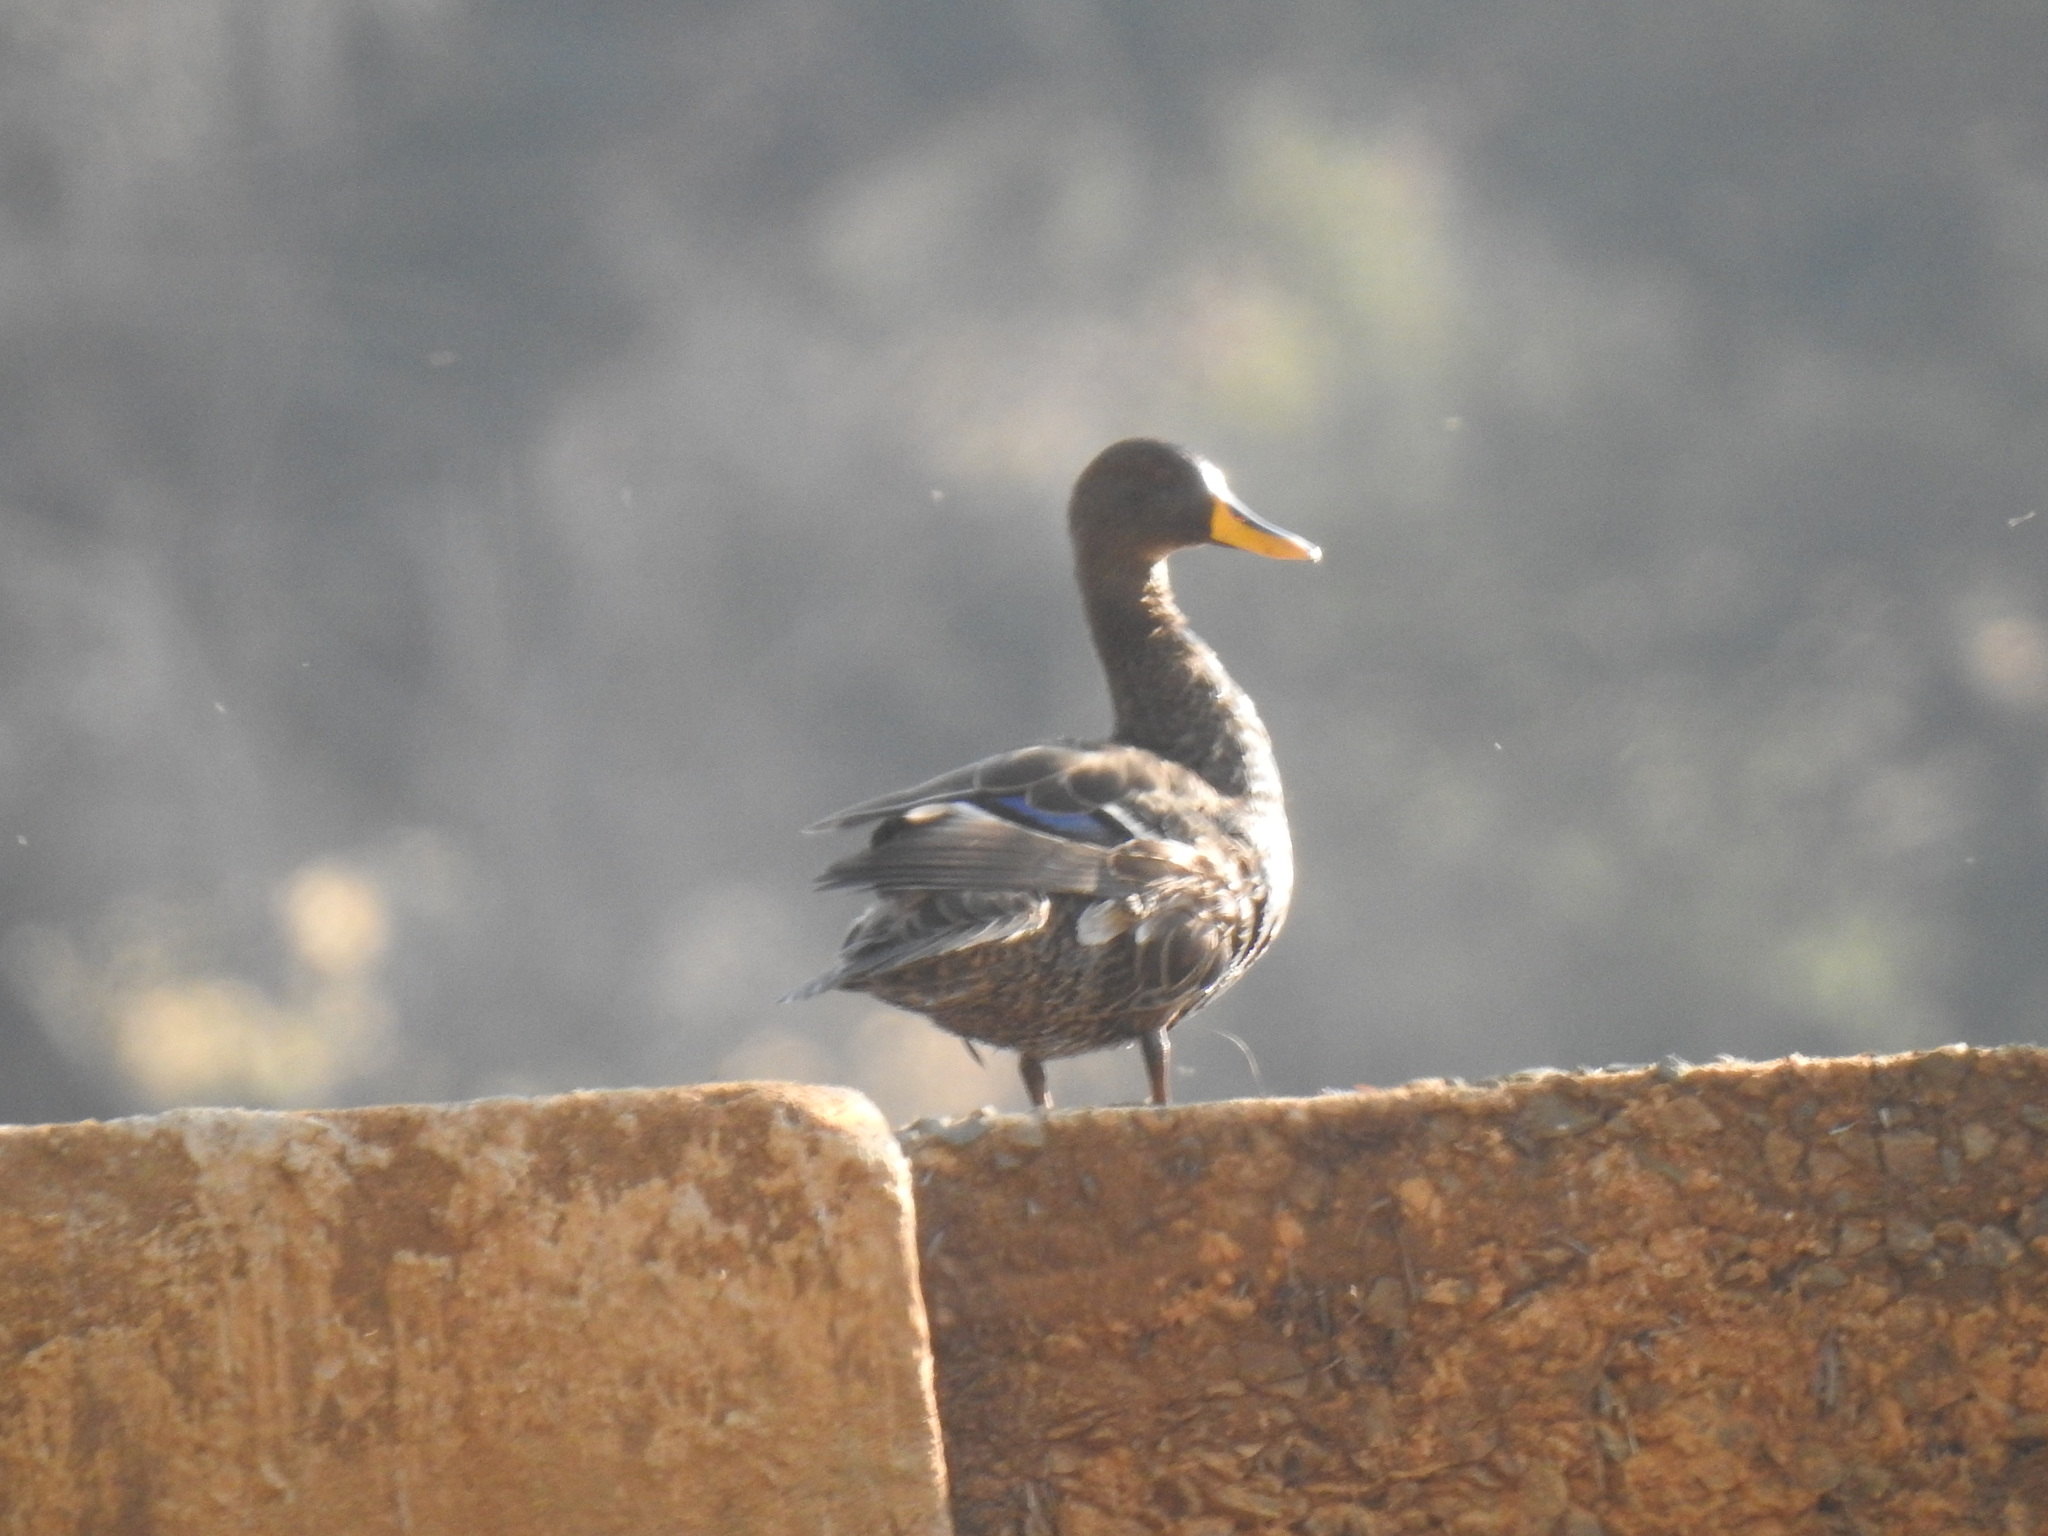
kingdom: Animalia
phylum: Chordata
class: Aves
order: Anseriformes
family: Anatidae
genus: Anas
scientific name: Anas undulata
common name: Yellow-billed duck
